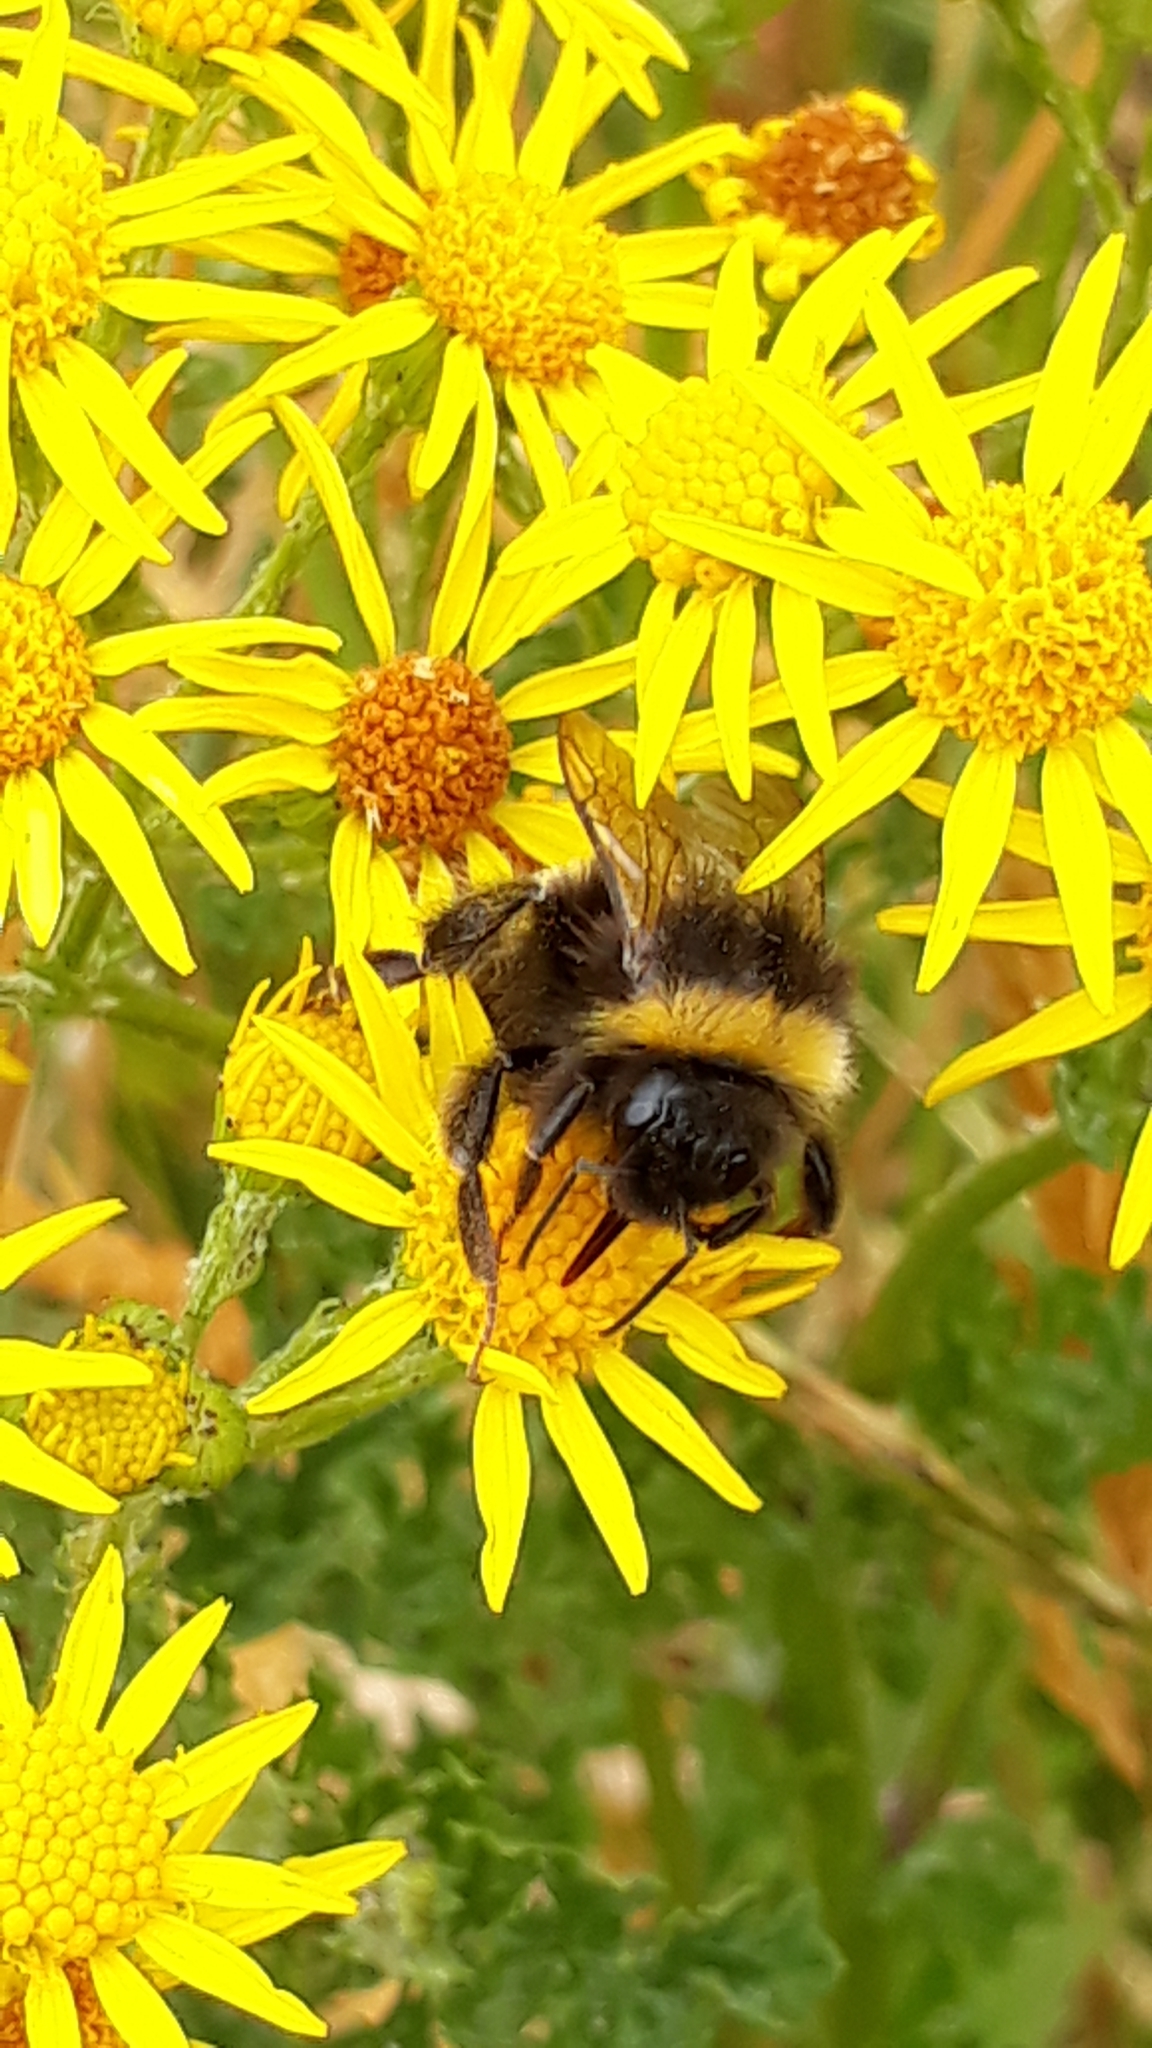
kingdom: Animalia
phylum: Arthropoda
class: Insecta
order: Hymenoptera
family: Apidae
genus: Bombus
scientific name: Bombus terrestris
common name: Buff-tailed bumblebee
